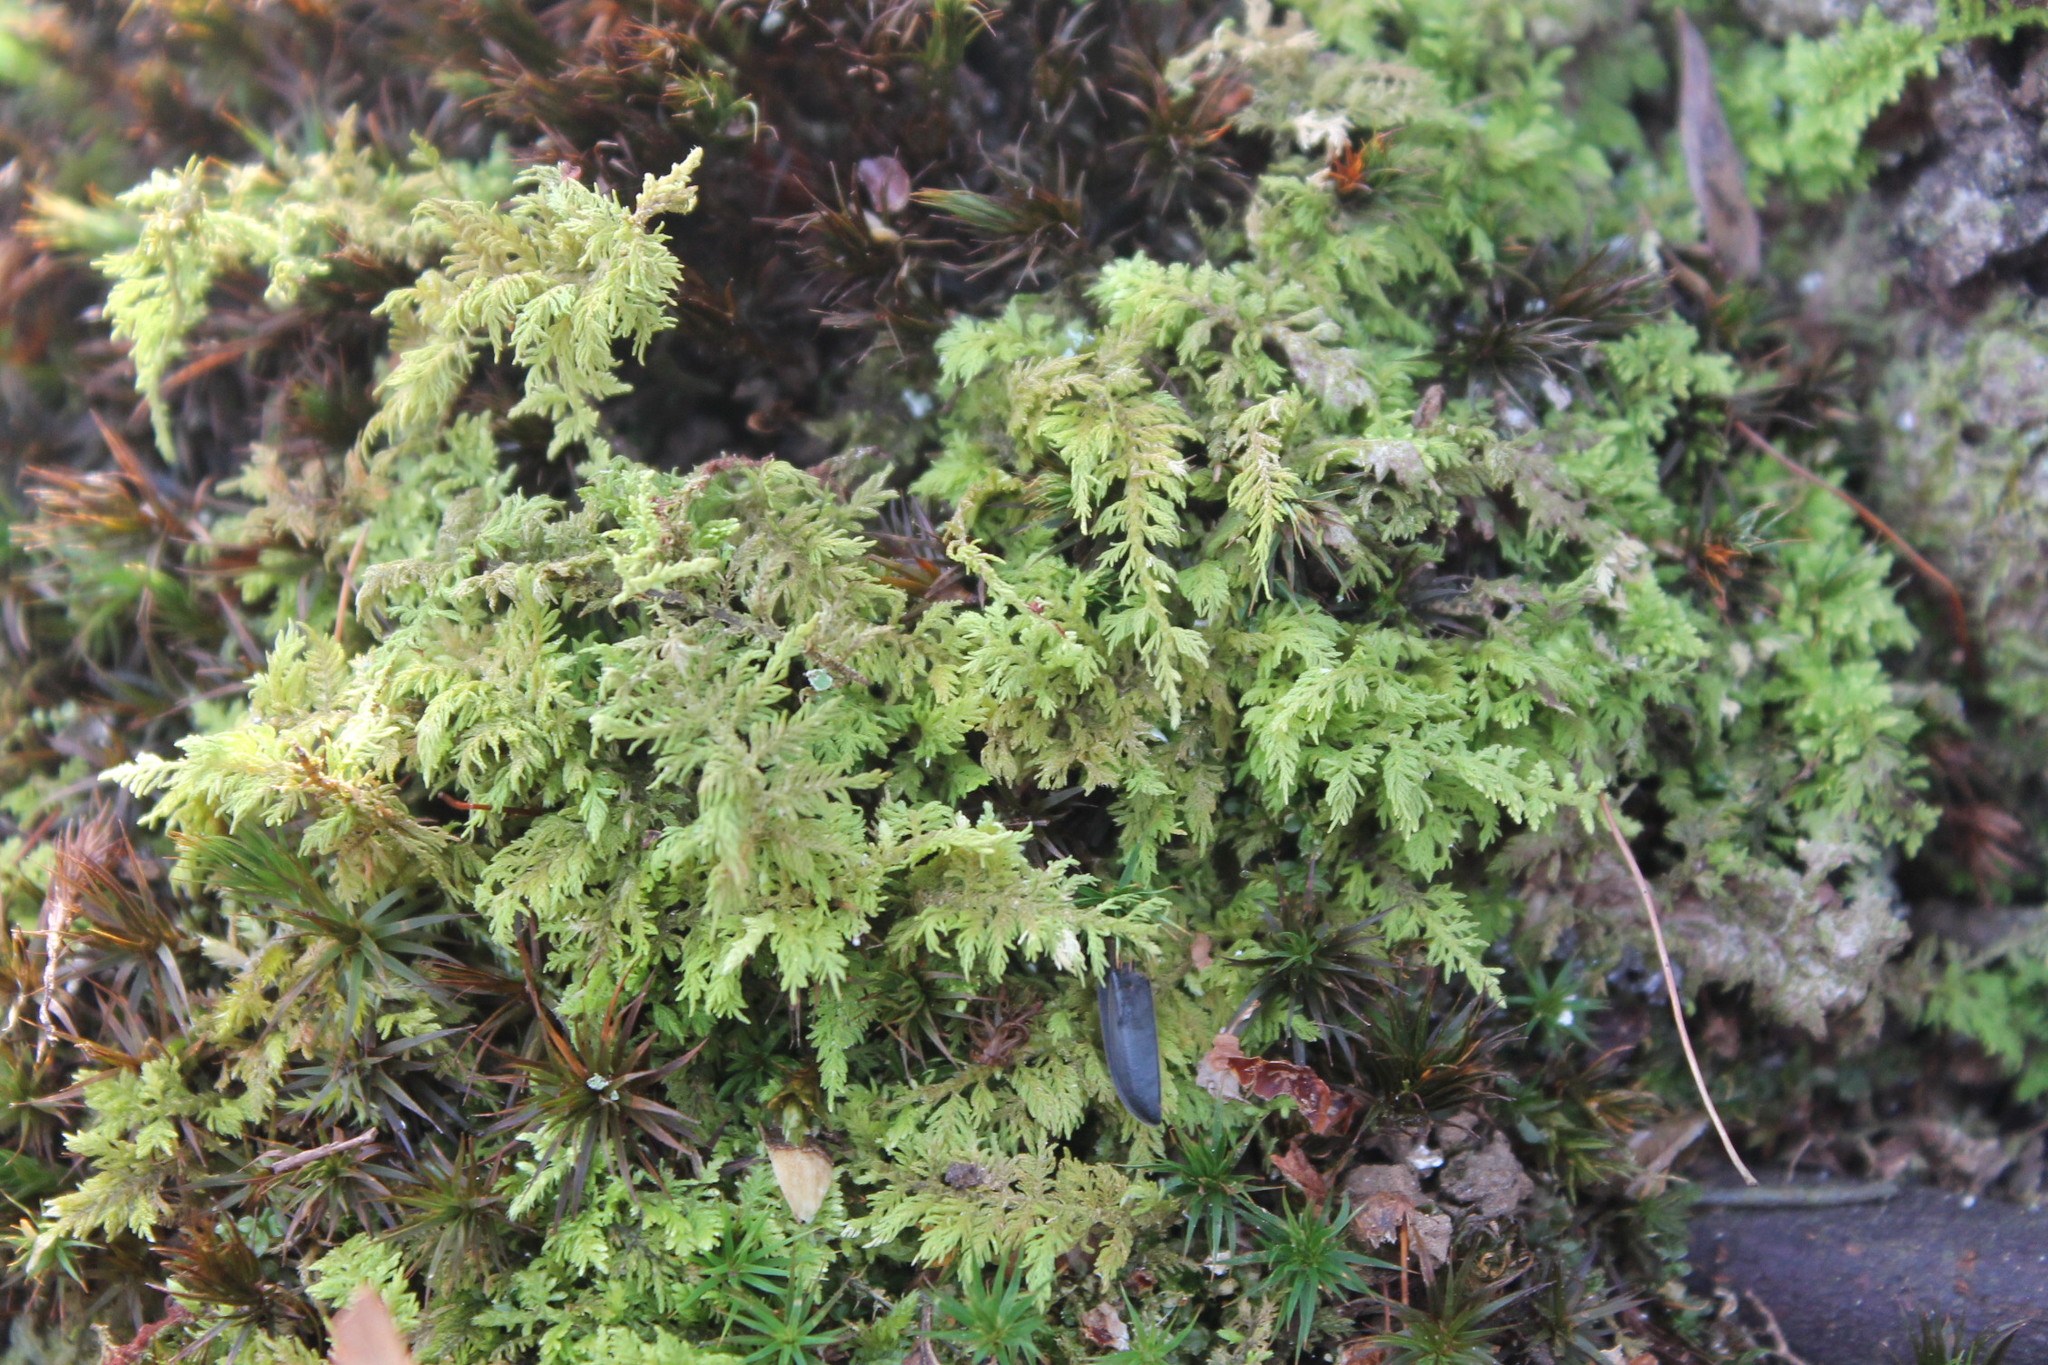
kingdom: Plantae
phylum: Bryophyta
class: Bryopsida
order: Hypnales
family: Thuidiaceae
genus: Thuidium
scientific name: Thuidium delicatulum
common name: Delicate fern moss
